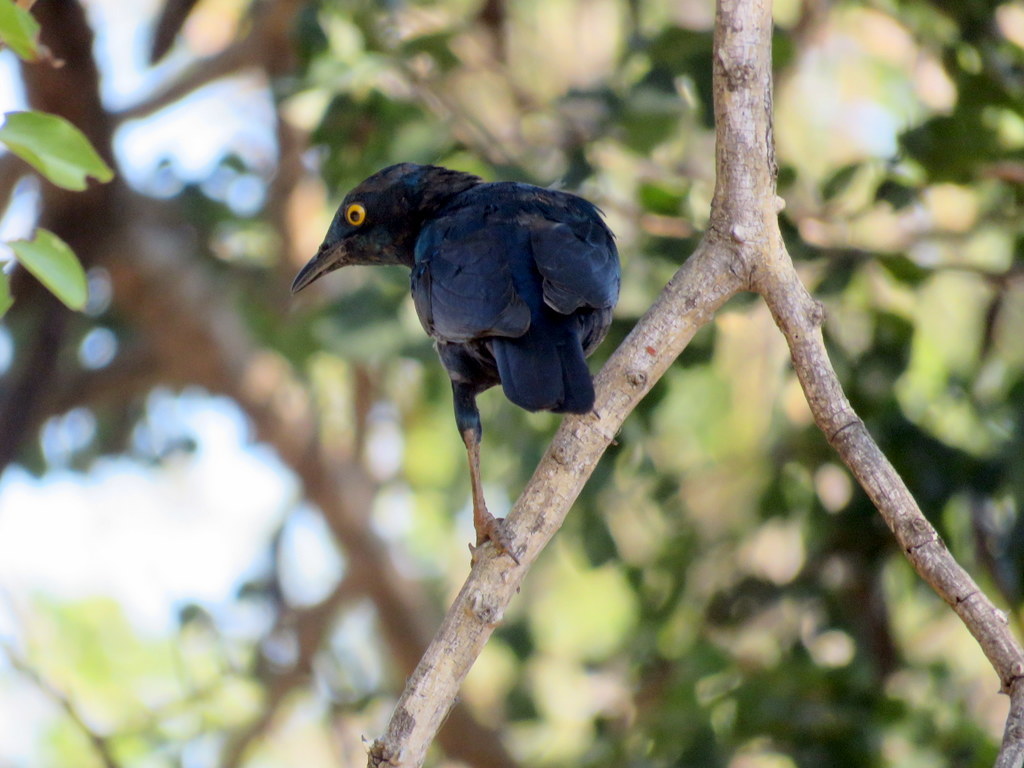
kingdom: Animalia
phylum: Chordata
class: Aves
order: Passeriformes
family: Sturnidae
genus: Lamprotornis
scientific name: Lamprotornis nitens
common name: Cape starling
